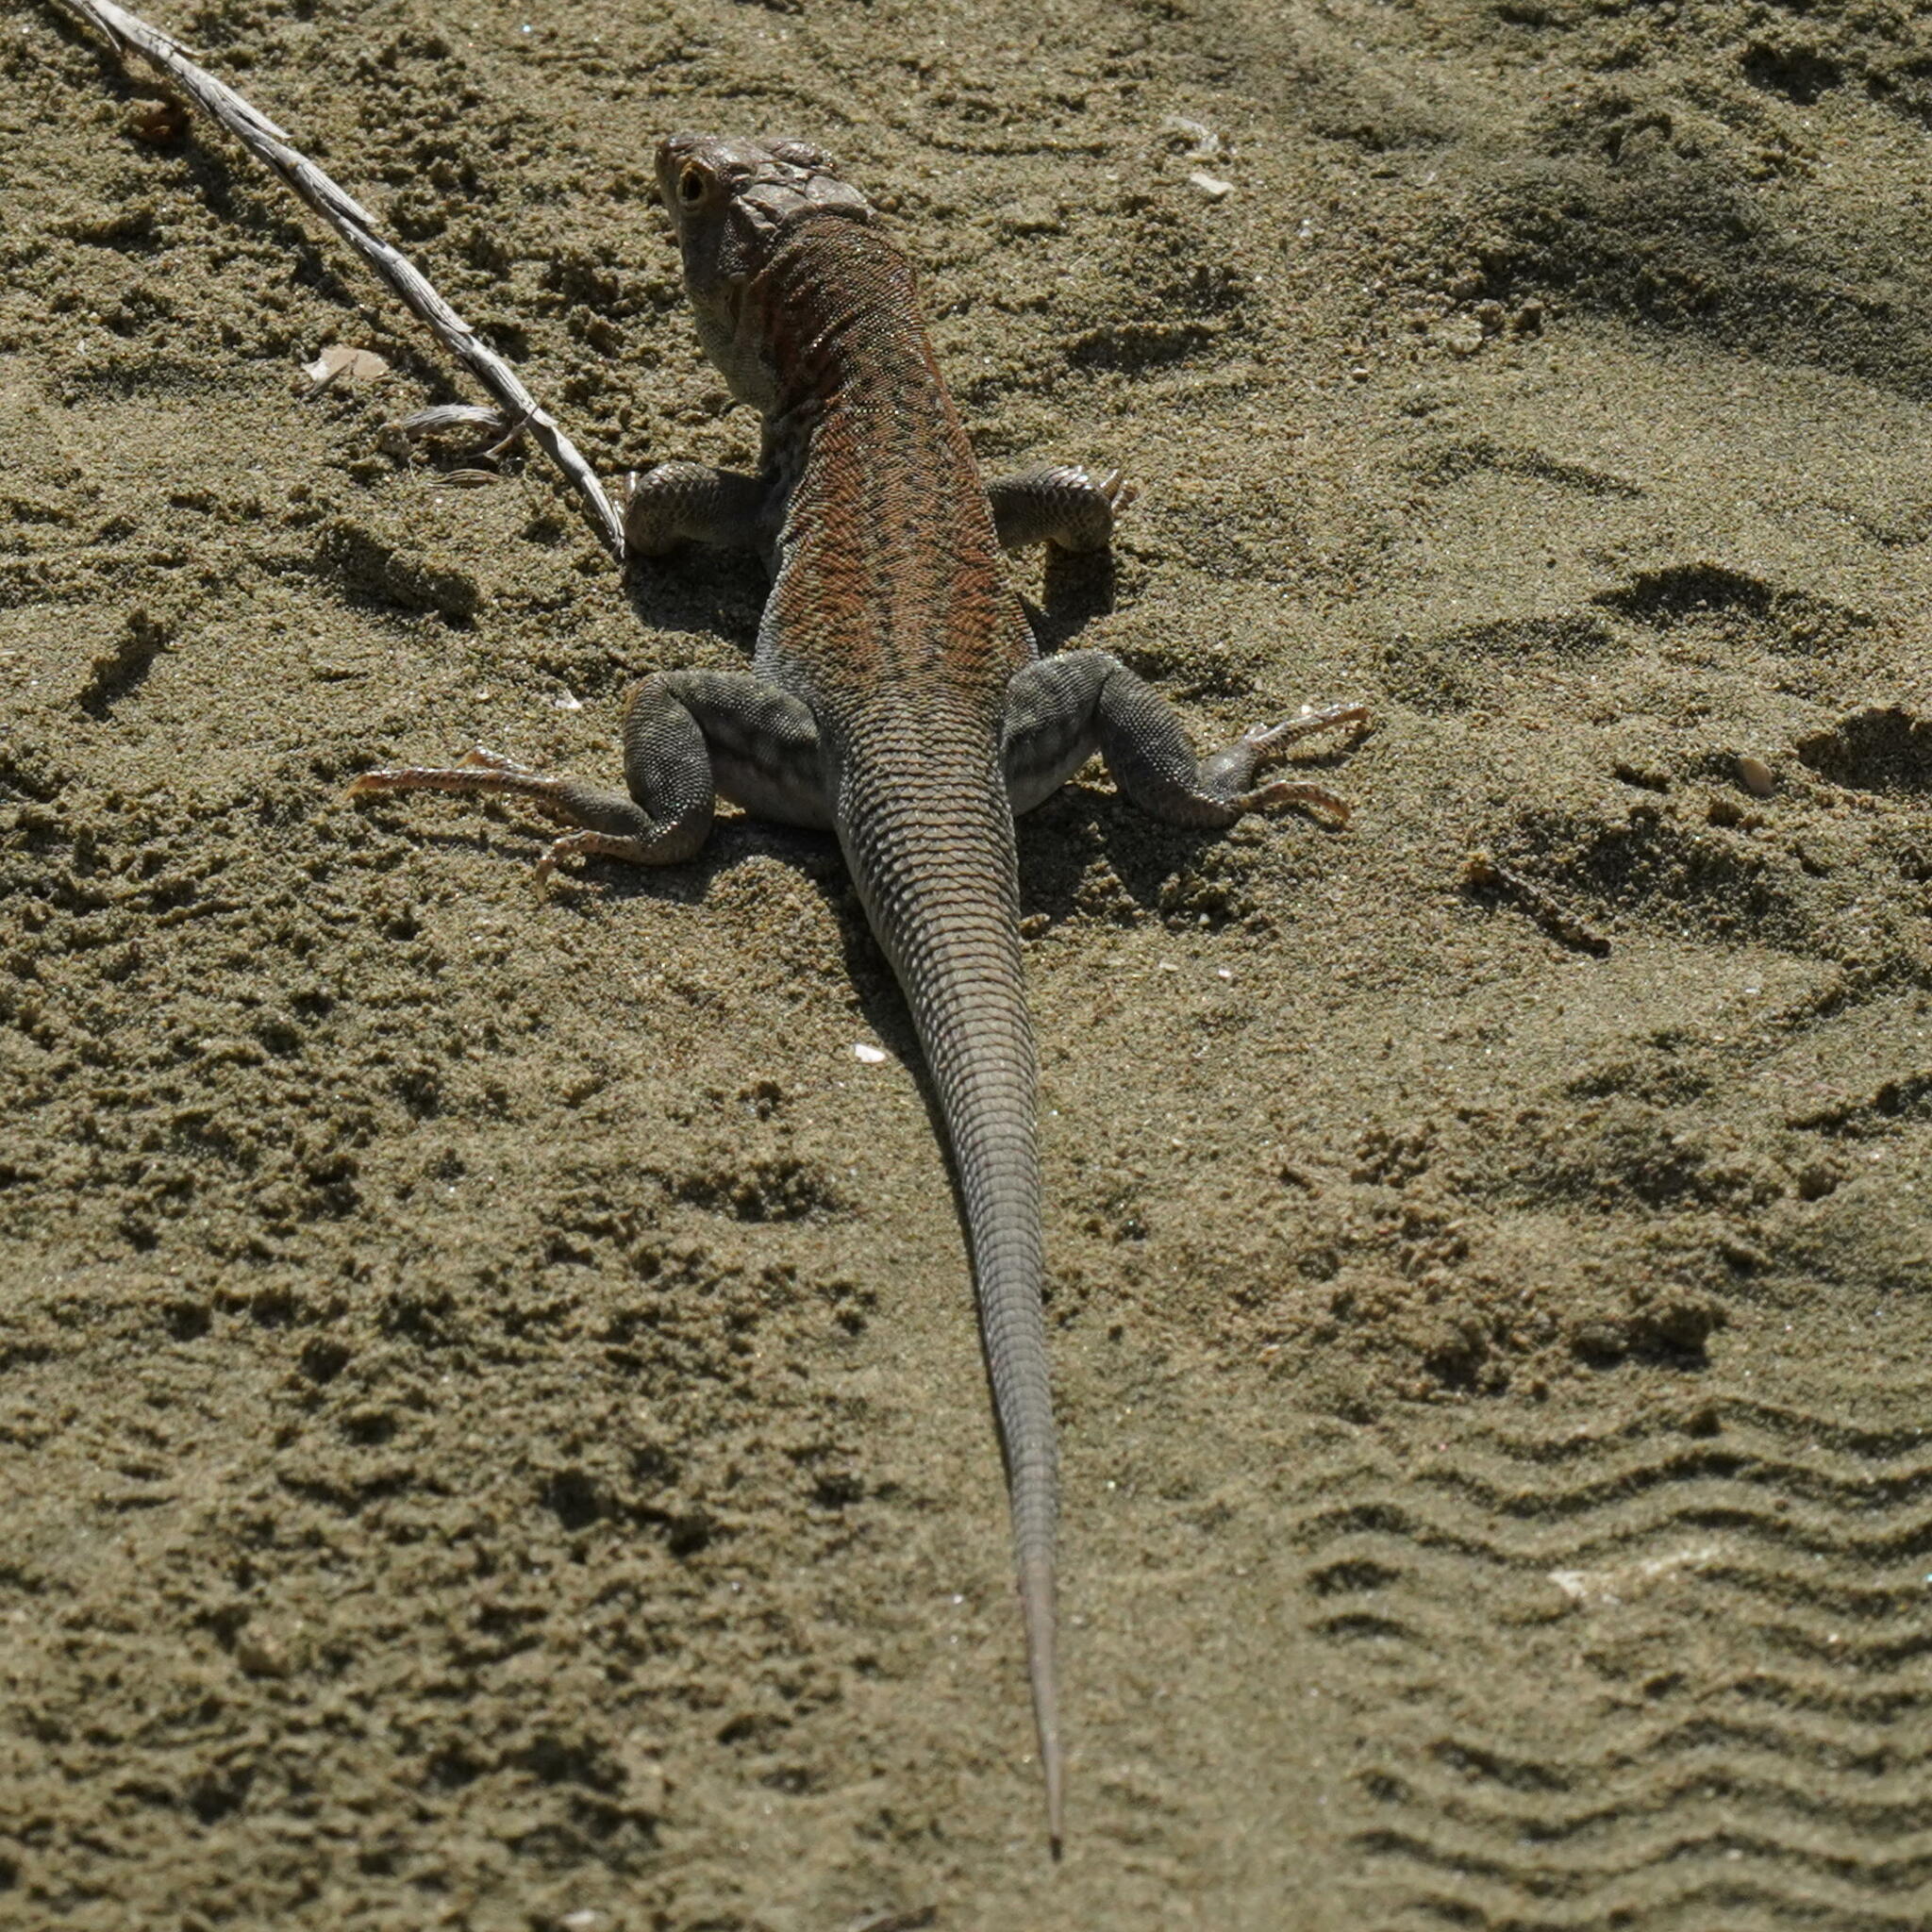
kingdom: Animalia
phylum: Chordata
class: Squamata
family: Lacertidae
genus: Acanthodactylus
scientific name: Acanthodactylus schreiberi
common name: Schreiber's fringe-fingered lizard
